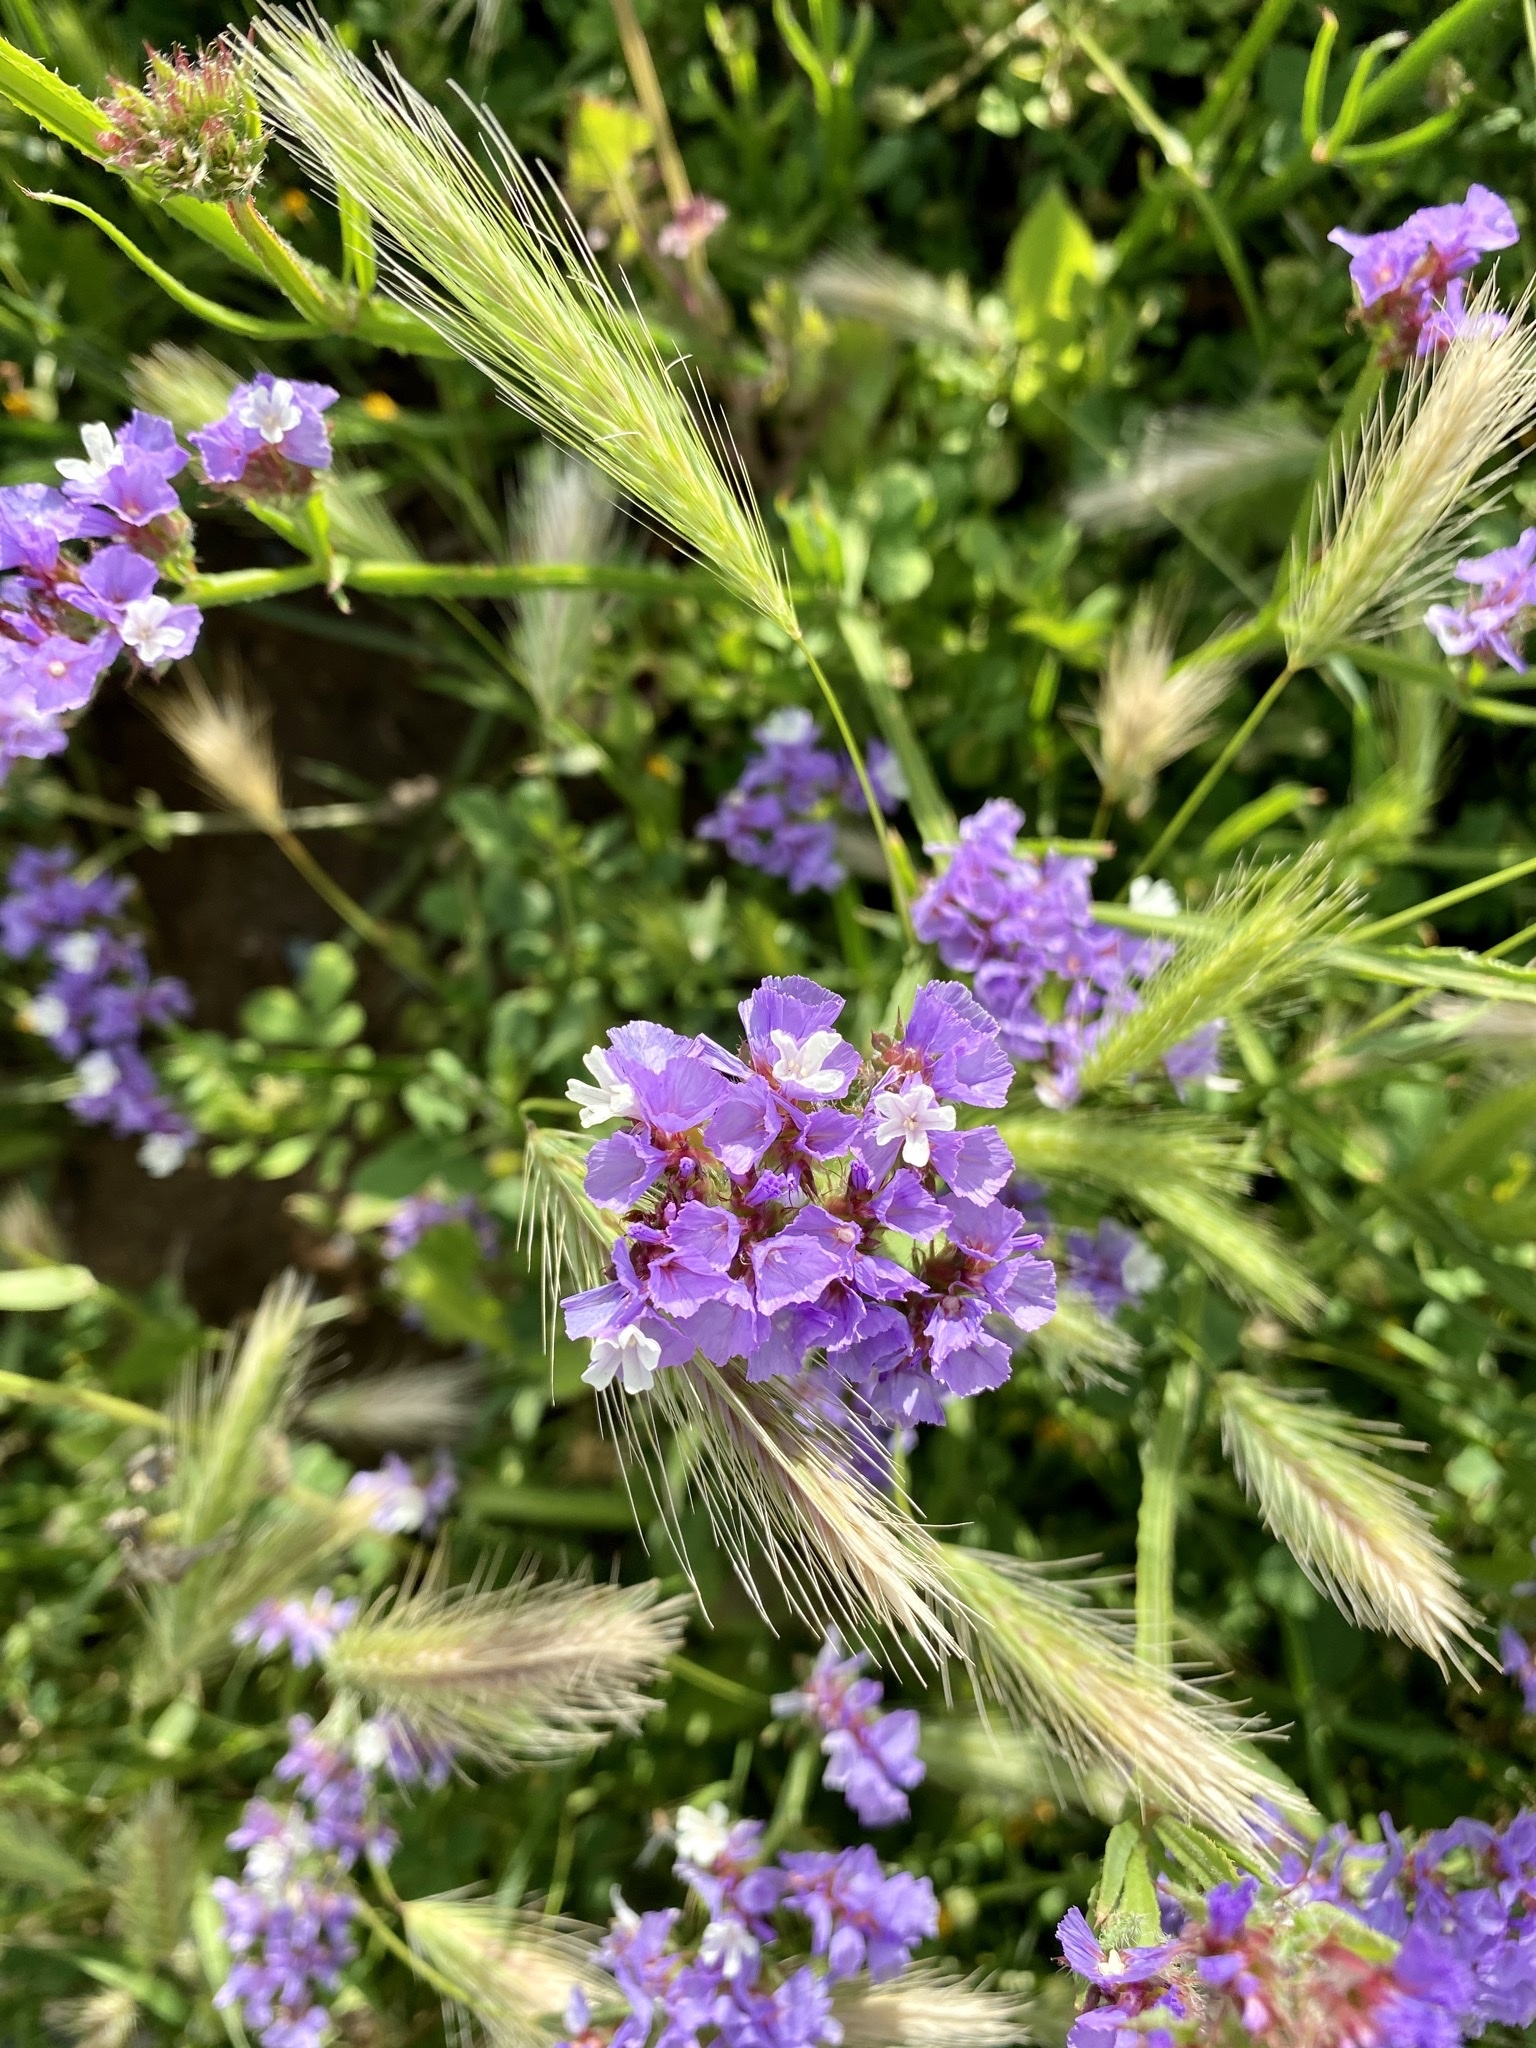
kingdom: Plantae
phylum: Tracheophyta
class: Magnoliopsida
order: Caryophyllales
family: Plumbaginaceae
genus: Limonium
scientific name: Limonium sinuatum
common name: Statice
